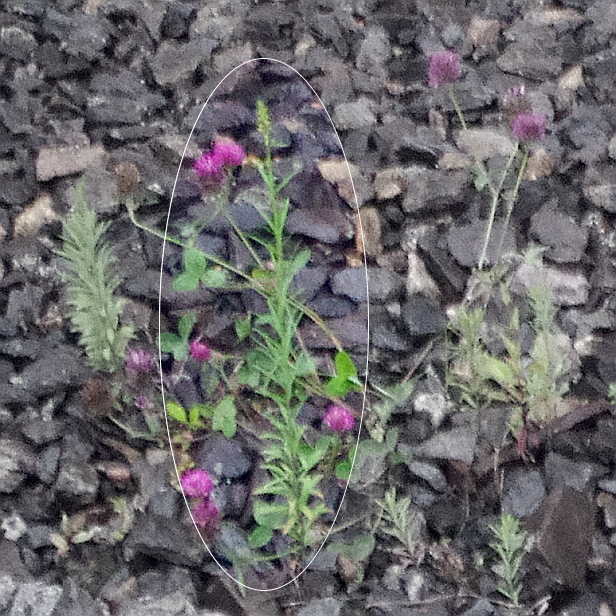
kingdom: Plantae
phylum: Tracheophyta
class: Magnoliopsida
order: Lamiales
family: Plantaginaceae
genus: Linaria
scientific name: Linaria vulgaris
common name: Butter and eggs
